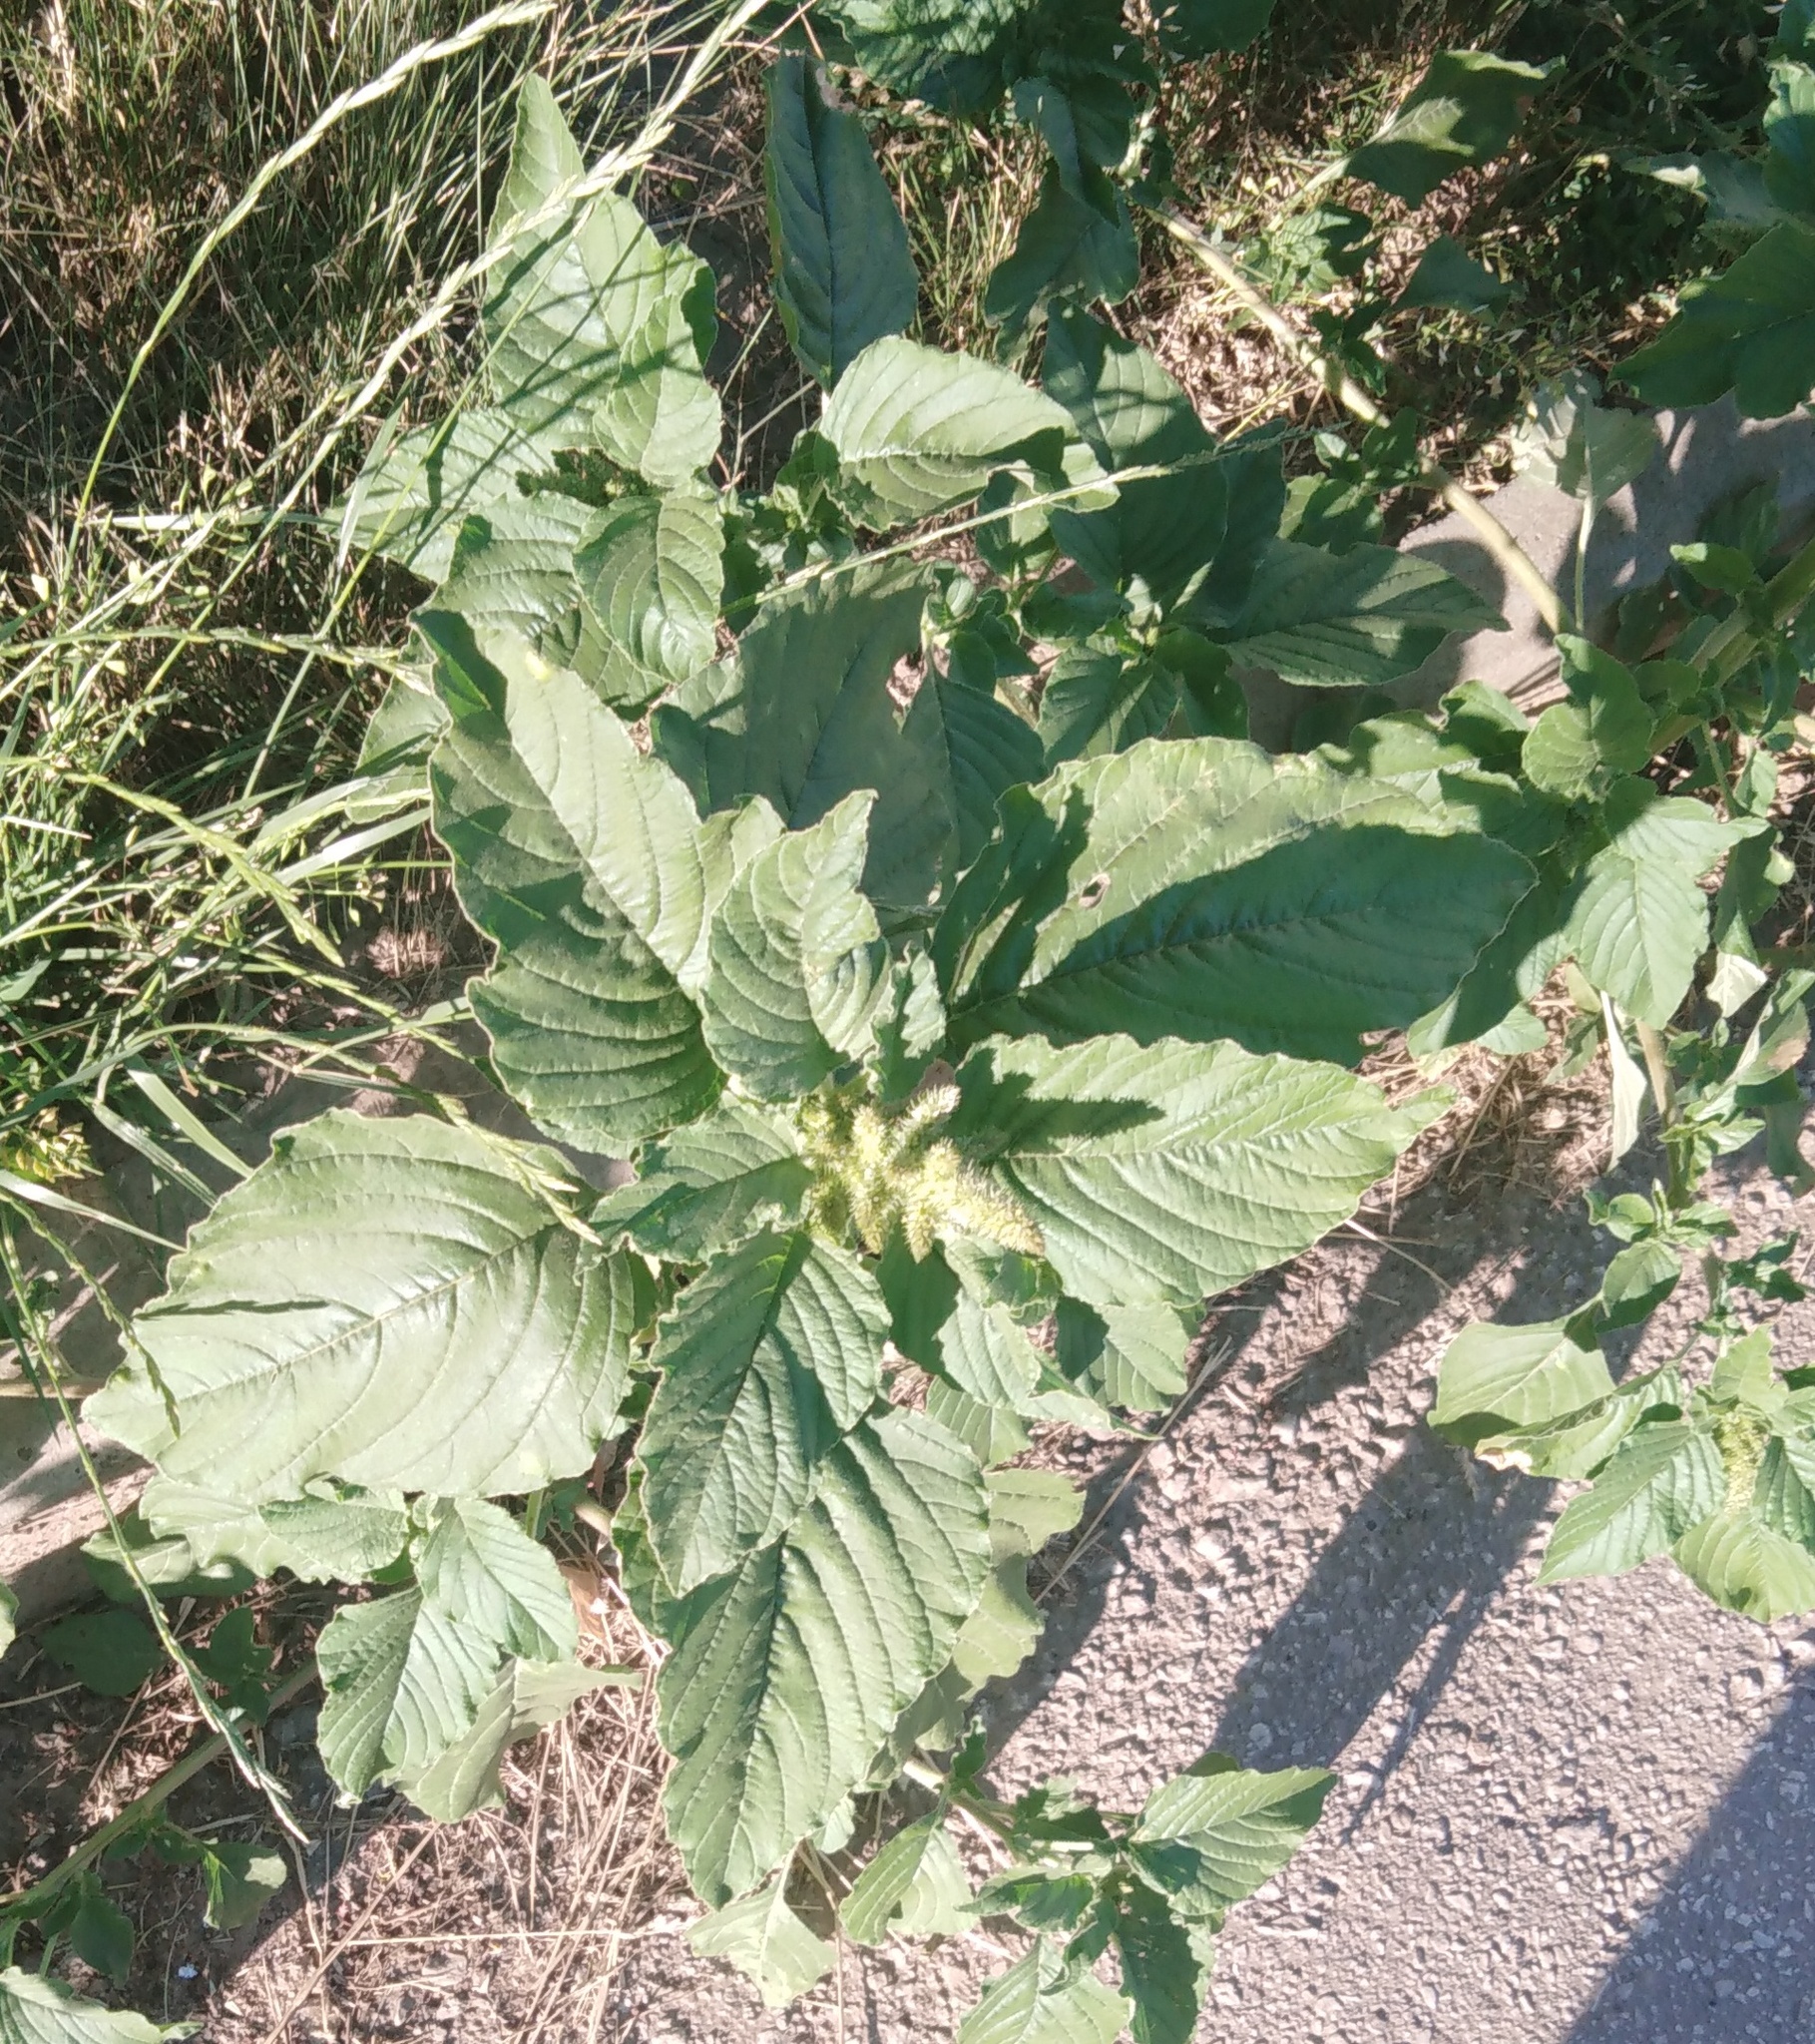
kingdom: Plantae
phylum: Tracheophyta
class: Magnoliopsida
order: Caryophyllales
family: Amaranthaceae
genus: Amaranthus
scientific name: Amaranthus retroflexus
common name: Redroot amaranth
